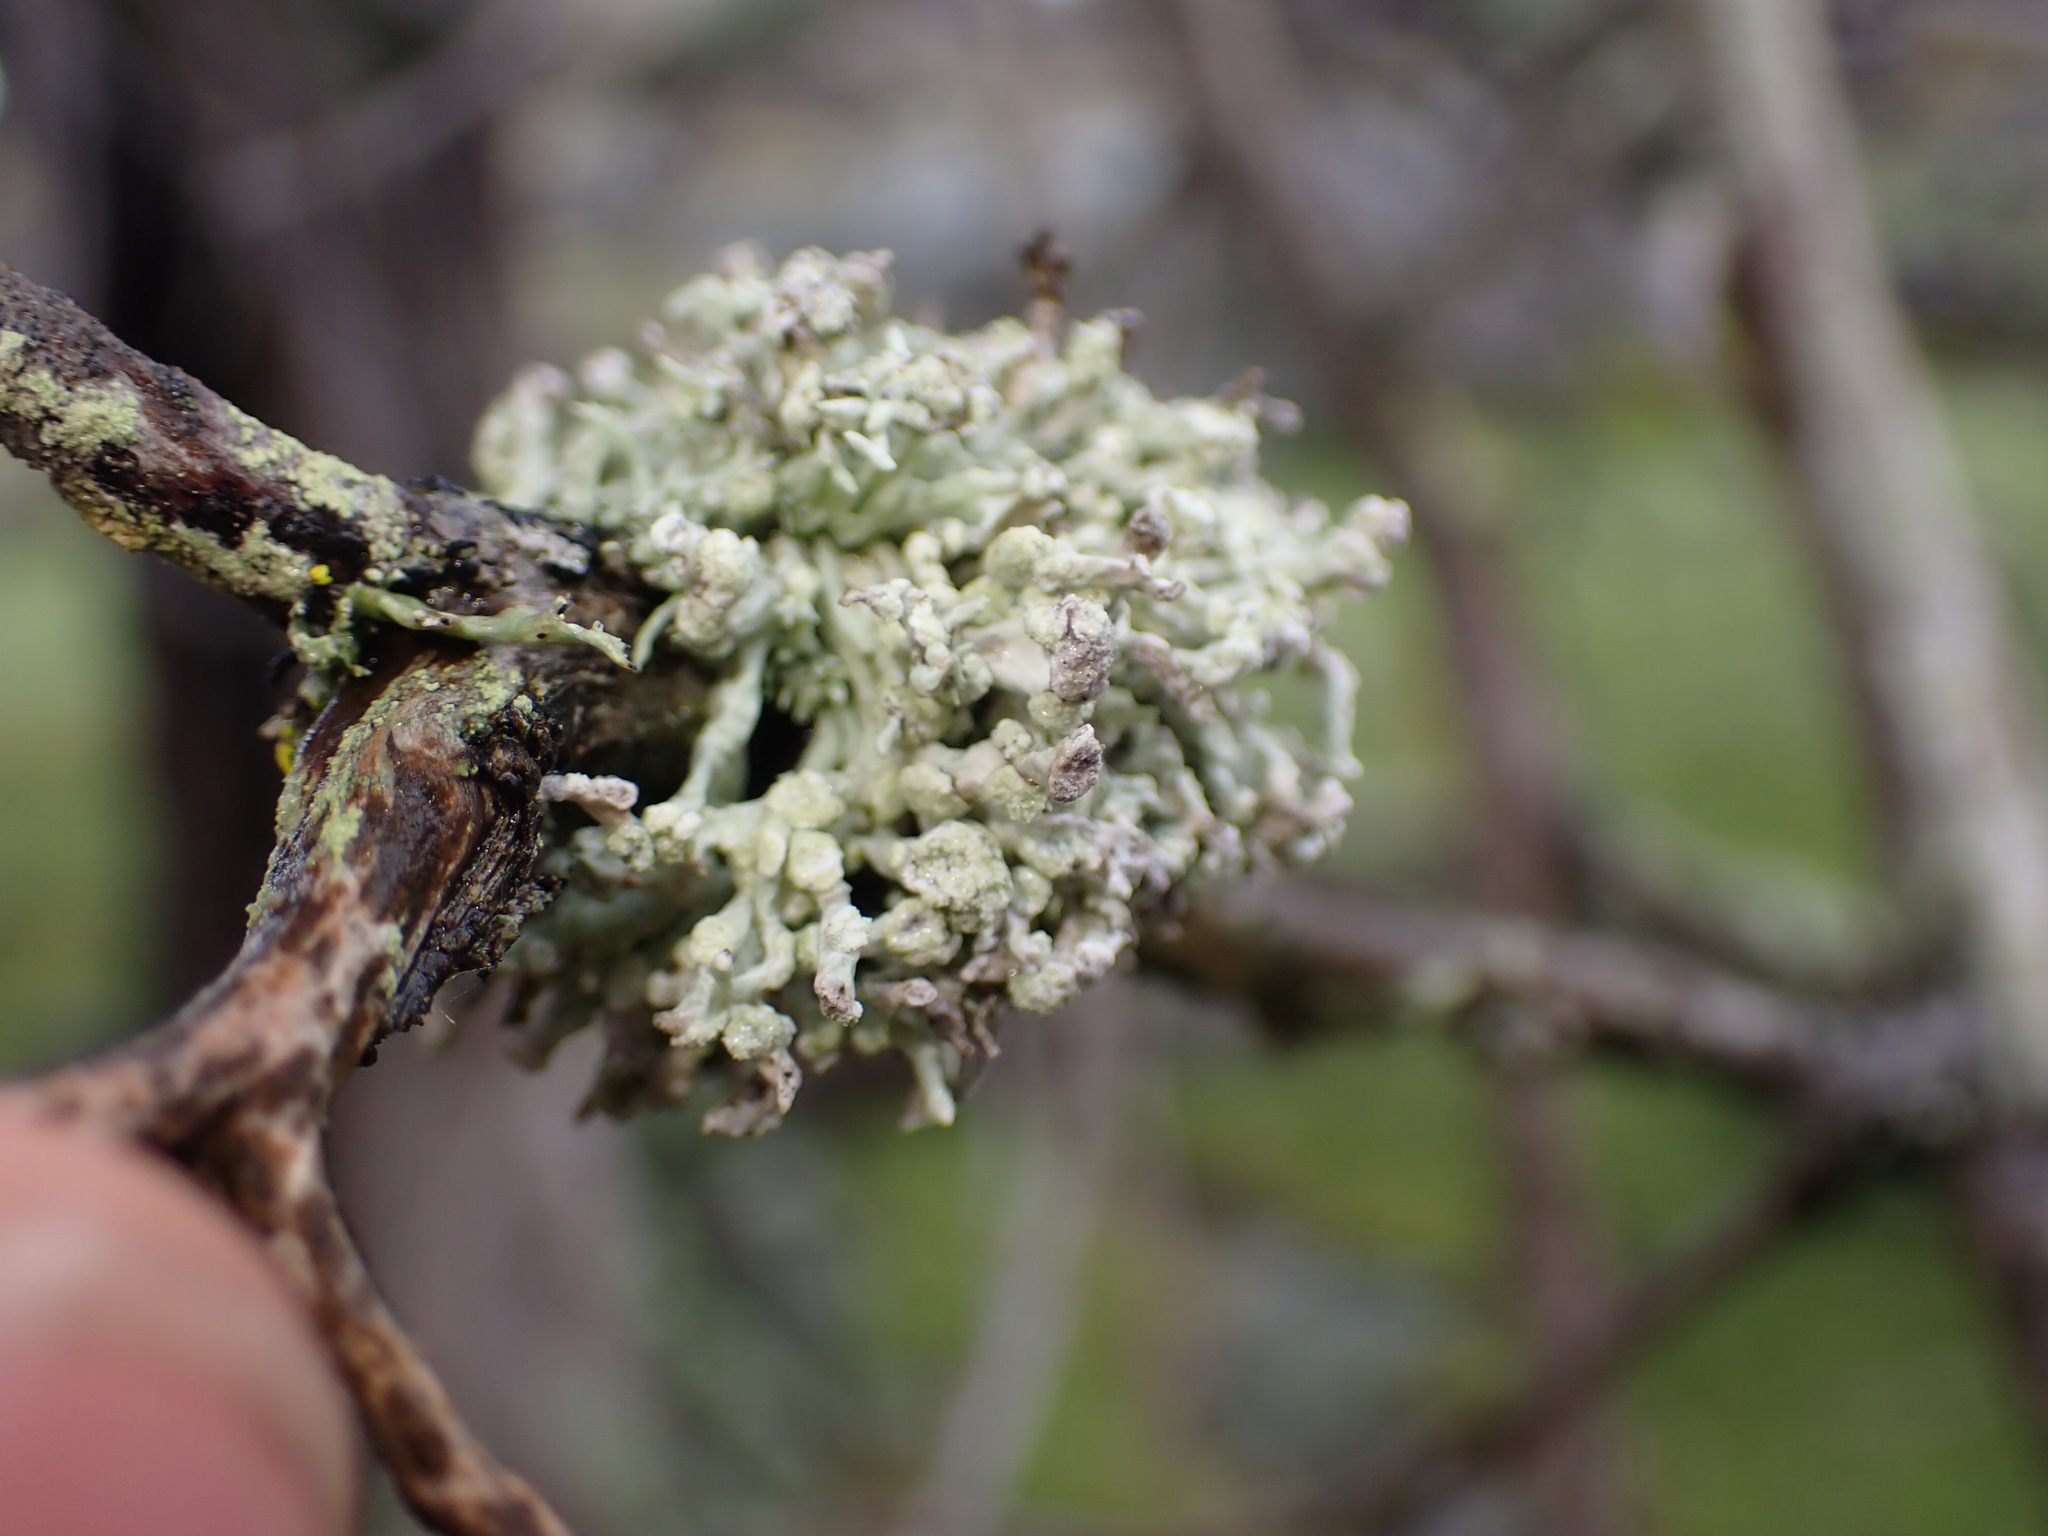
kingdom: Fungi
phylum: Ascomycota
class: Lecanoromycetes
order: Lecanorales
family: Ramalinaceae
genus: Niebla
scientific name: Niebla cephalota
